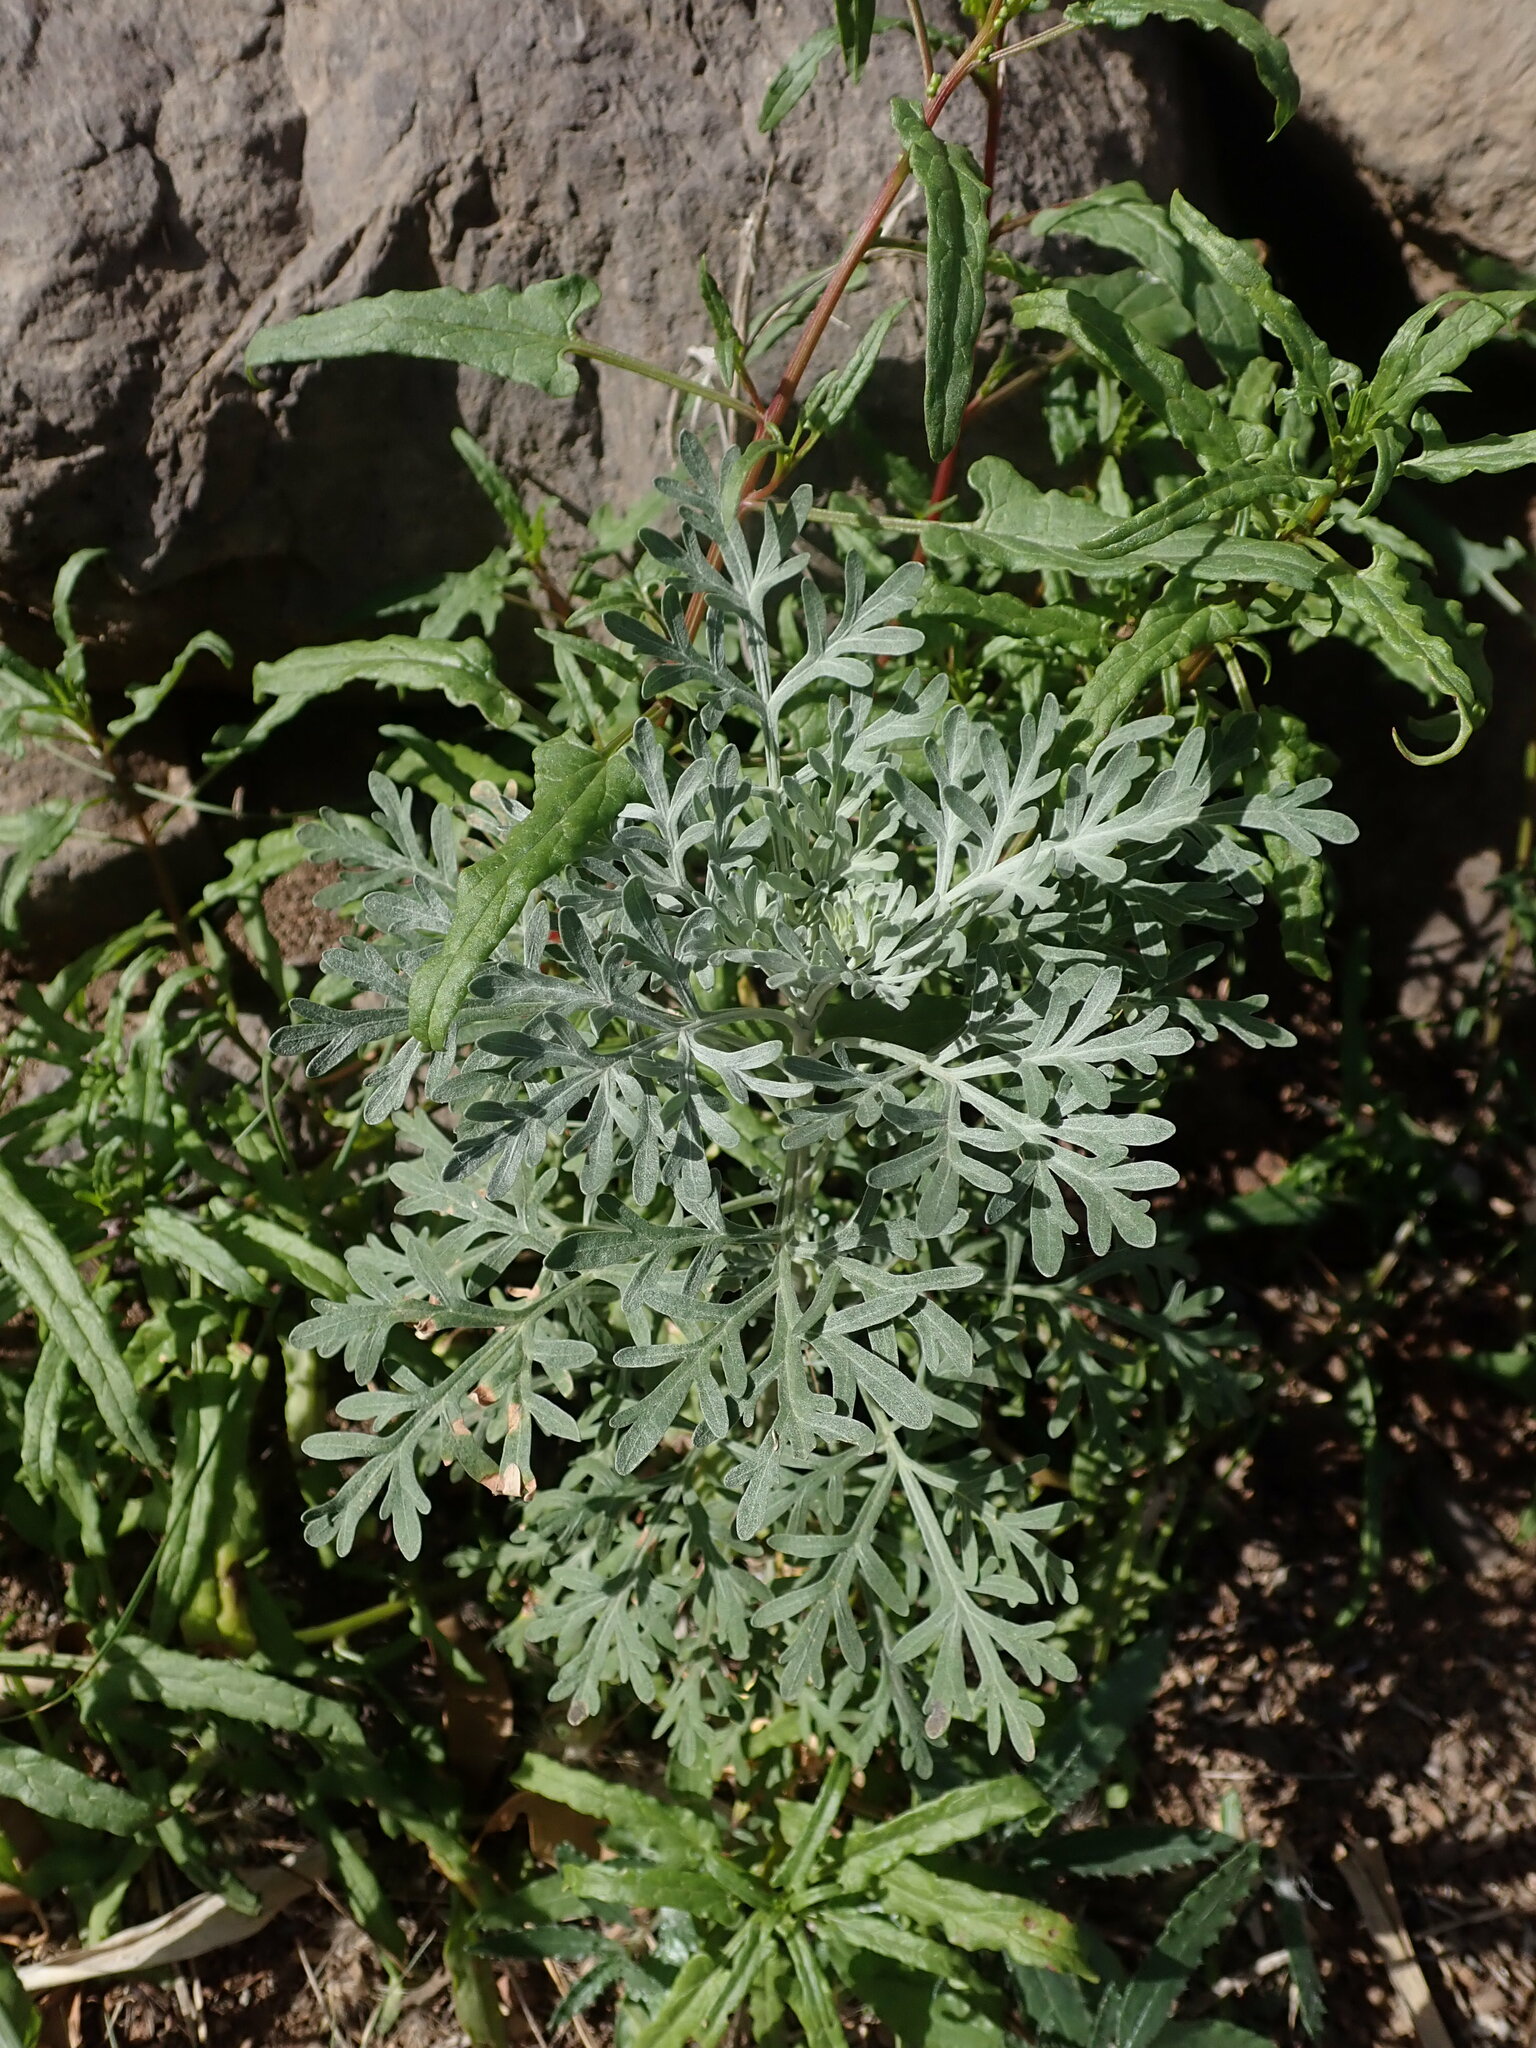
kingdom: Plantae
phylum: Tracheophyta
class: Magnoliopsida
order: Asterales
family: Asteraceae
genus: Artemisia
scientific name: Artemisia thuscula
